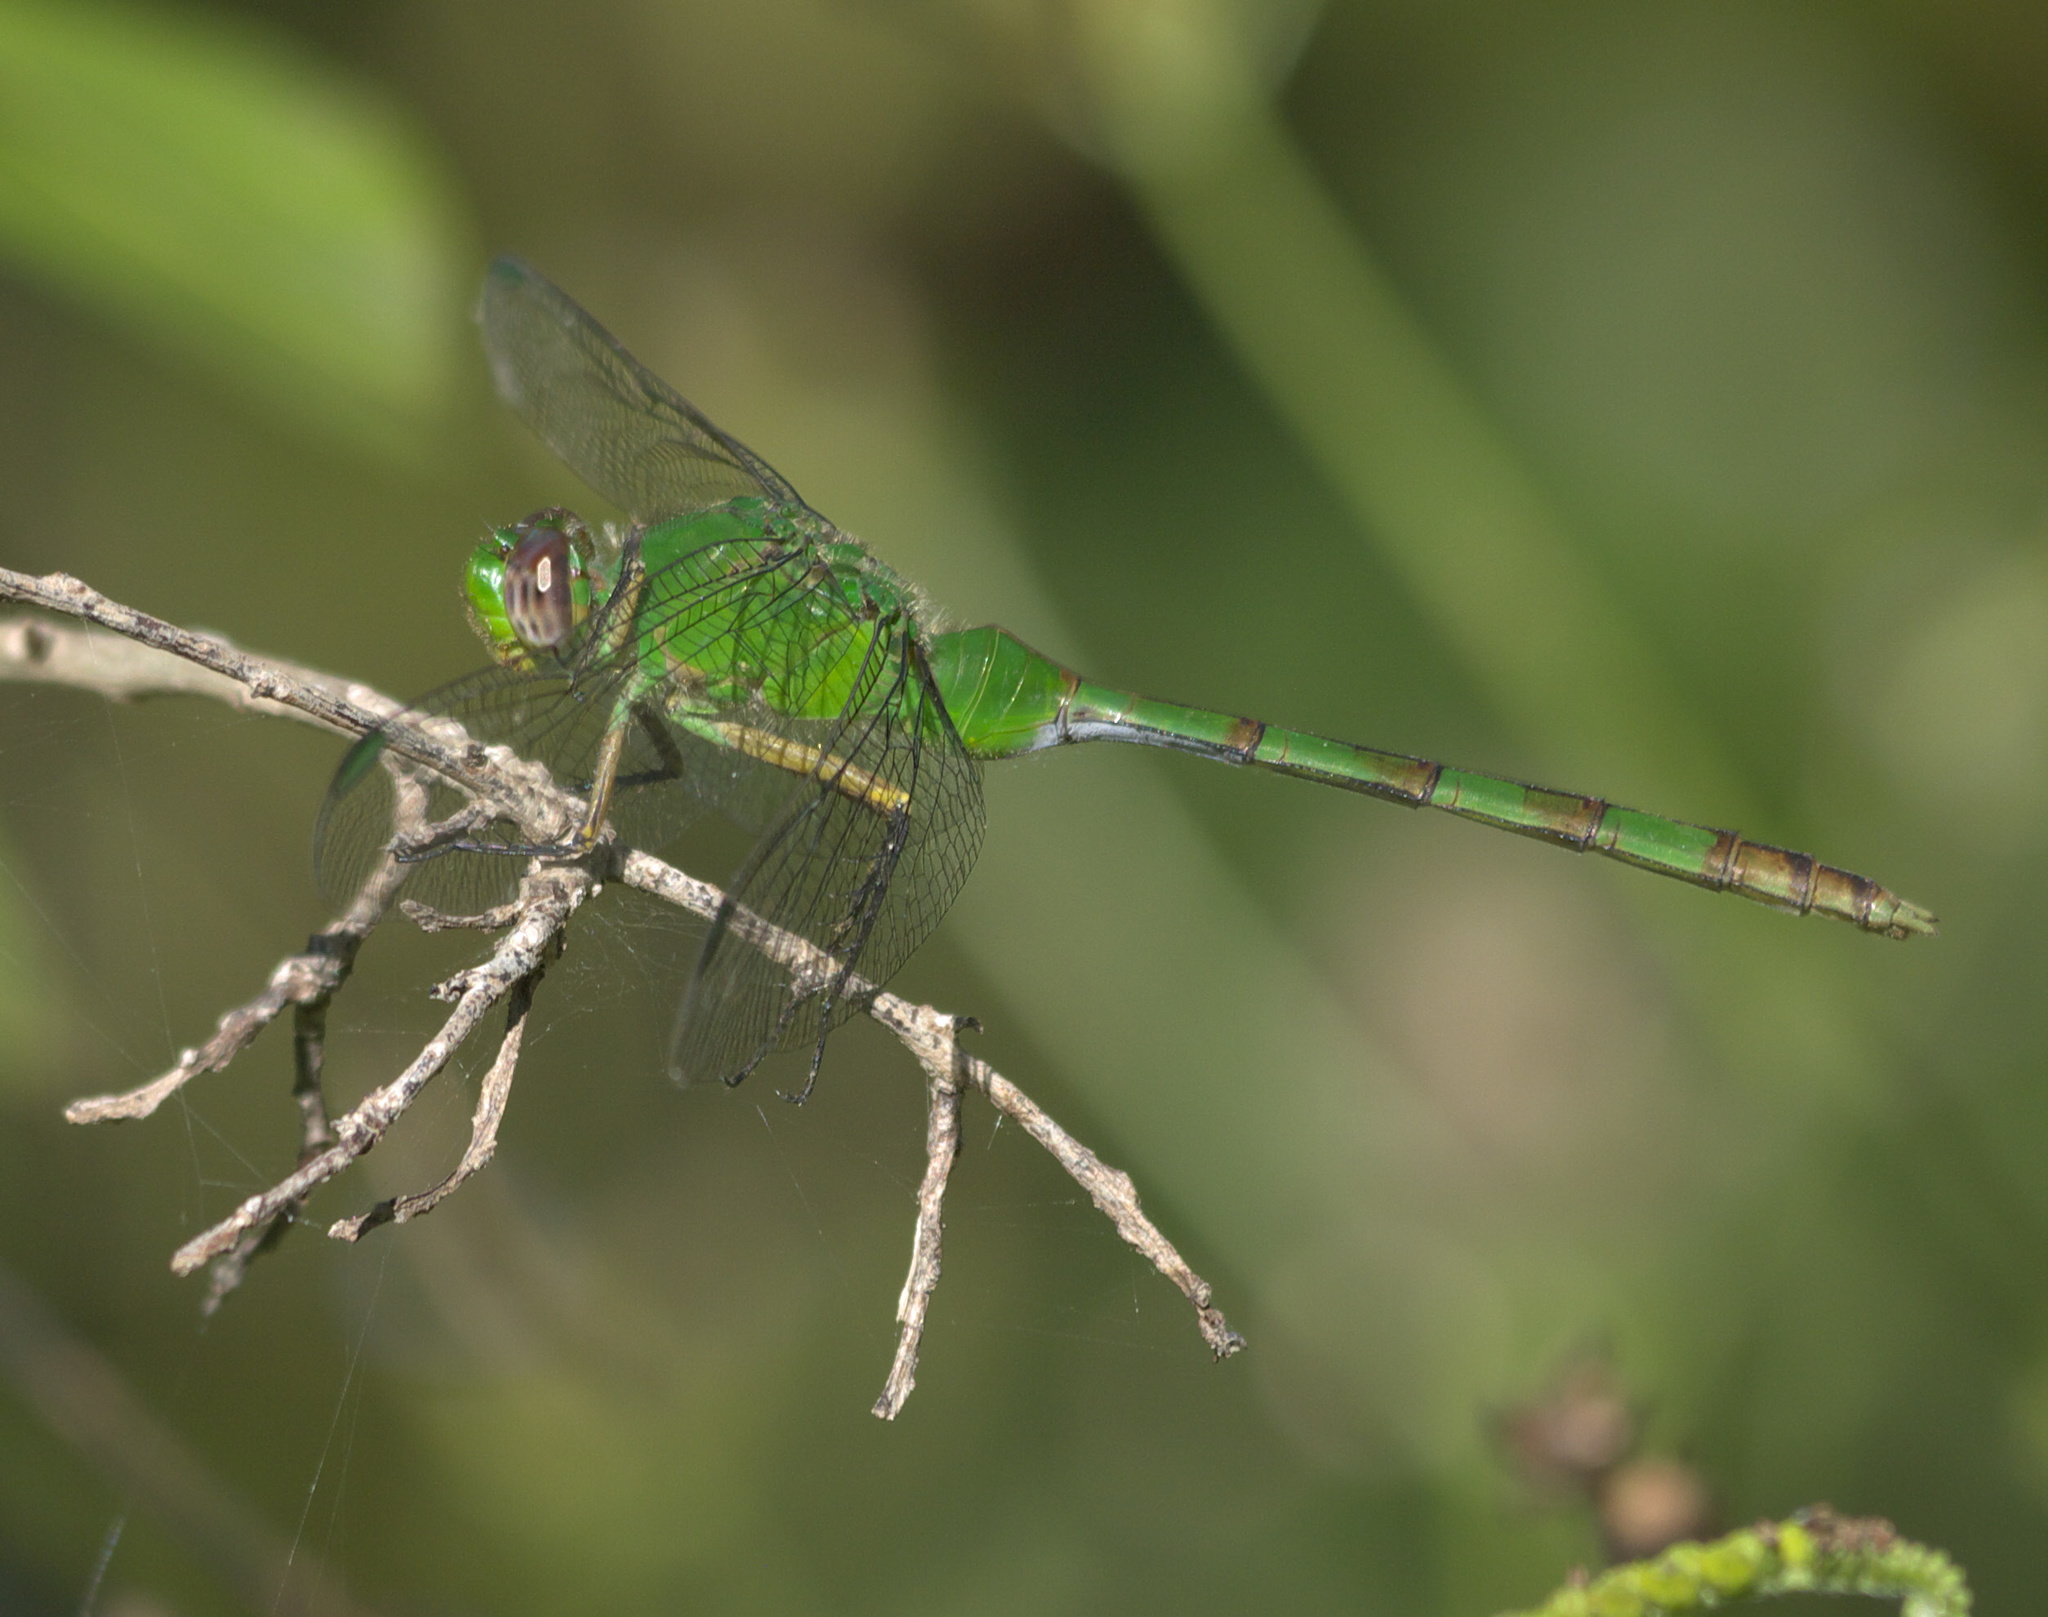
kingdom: Animalia
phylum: Arthropoda
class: Insecta
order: Odonata
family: Libellulidae
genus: Erythemis
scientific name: Erythemis vesiculosa
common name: Great pondhawk
